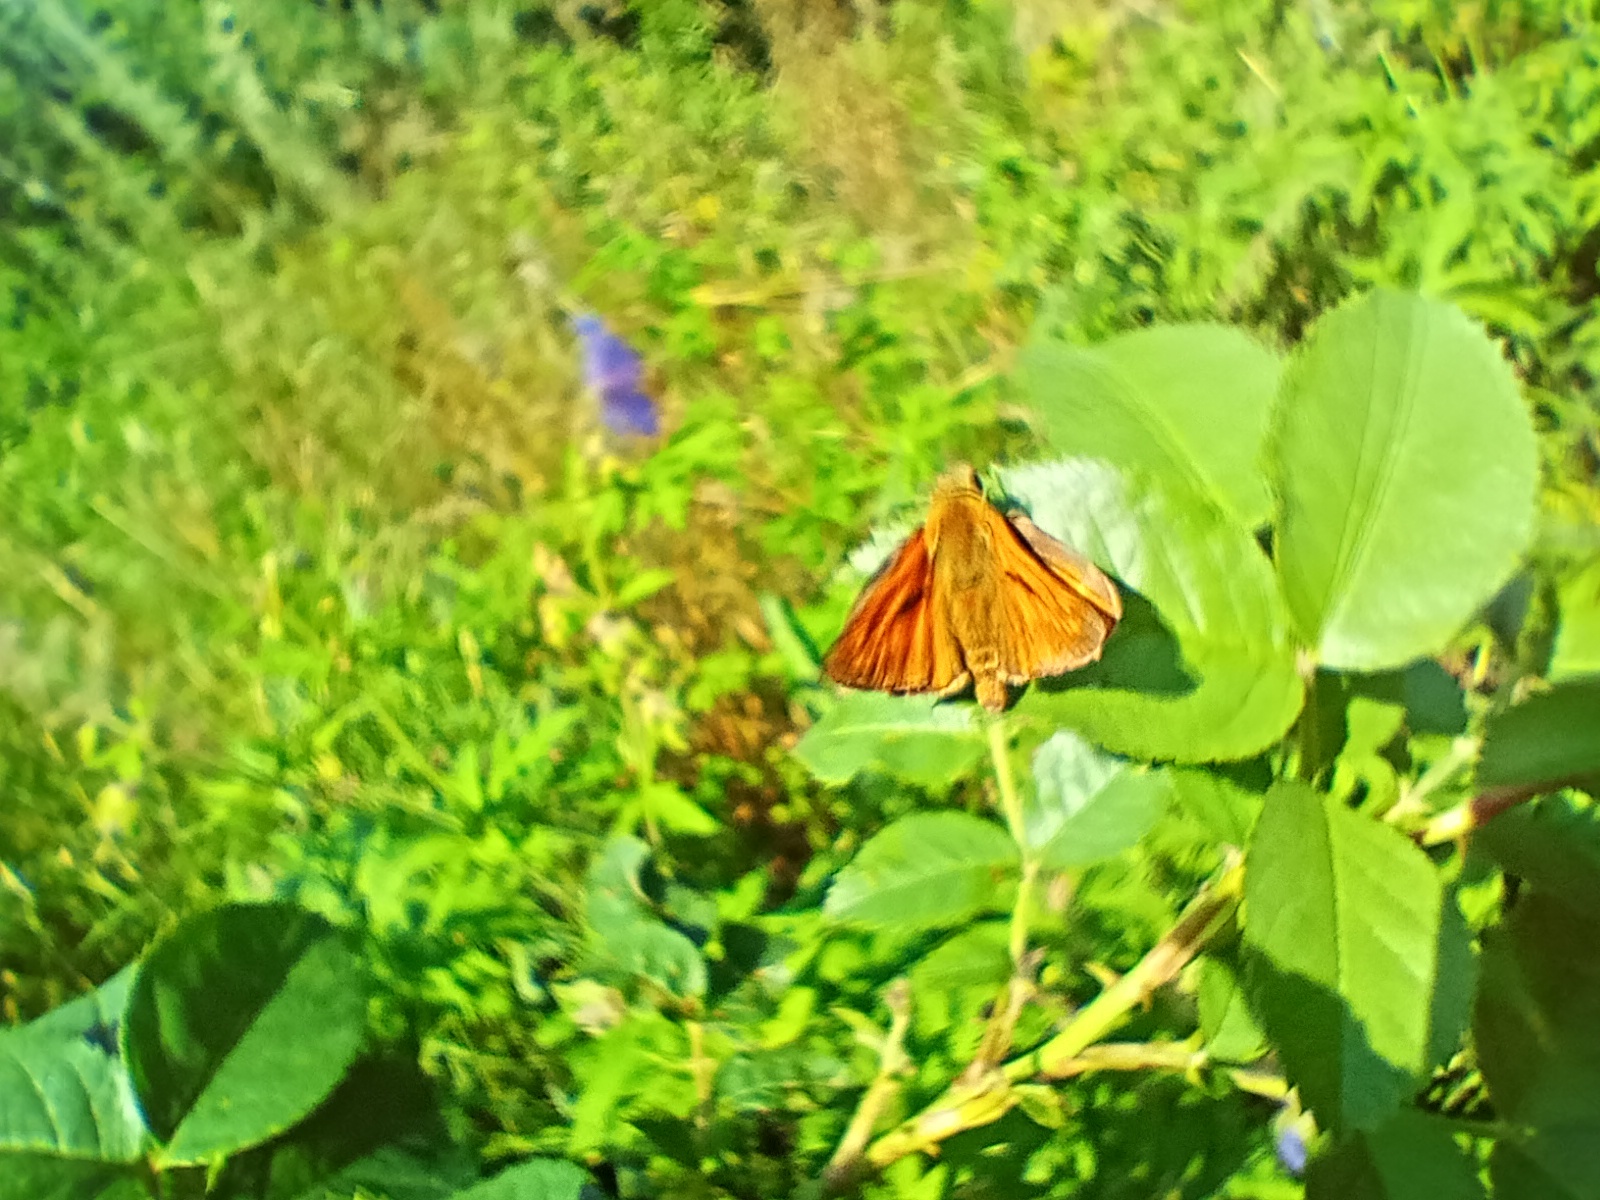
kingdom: Animalia
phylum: Arthropoda
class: Insecta
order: Lepidoptera
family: Hesperiidae
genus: Ochlodes
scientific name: Ochlodes venata
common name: Large skipper
